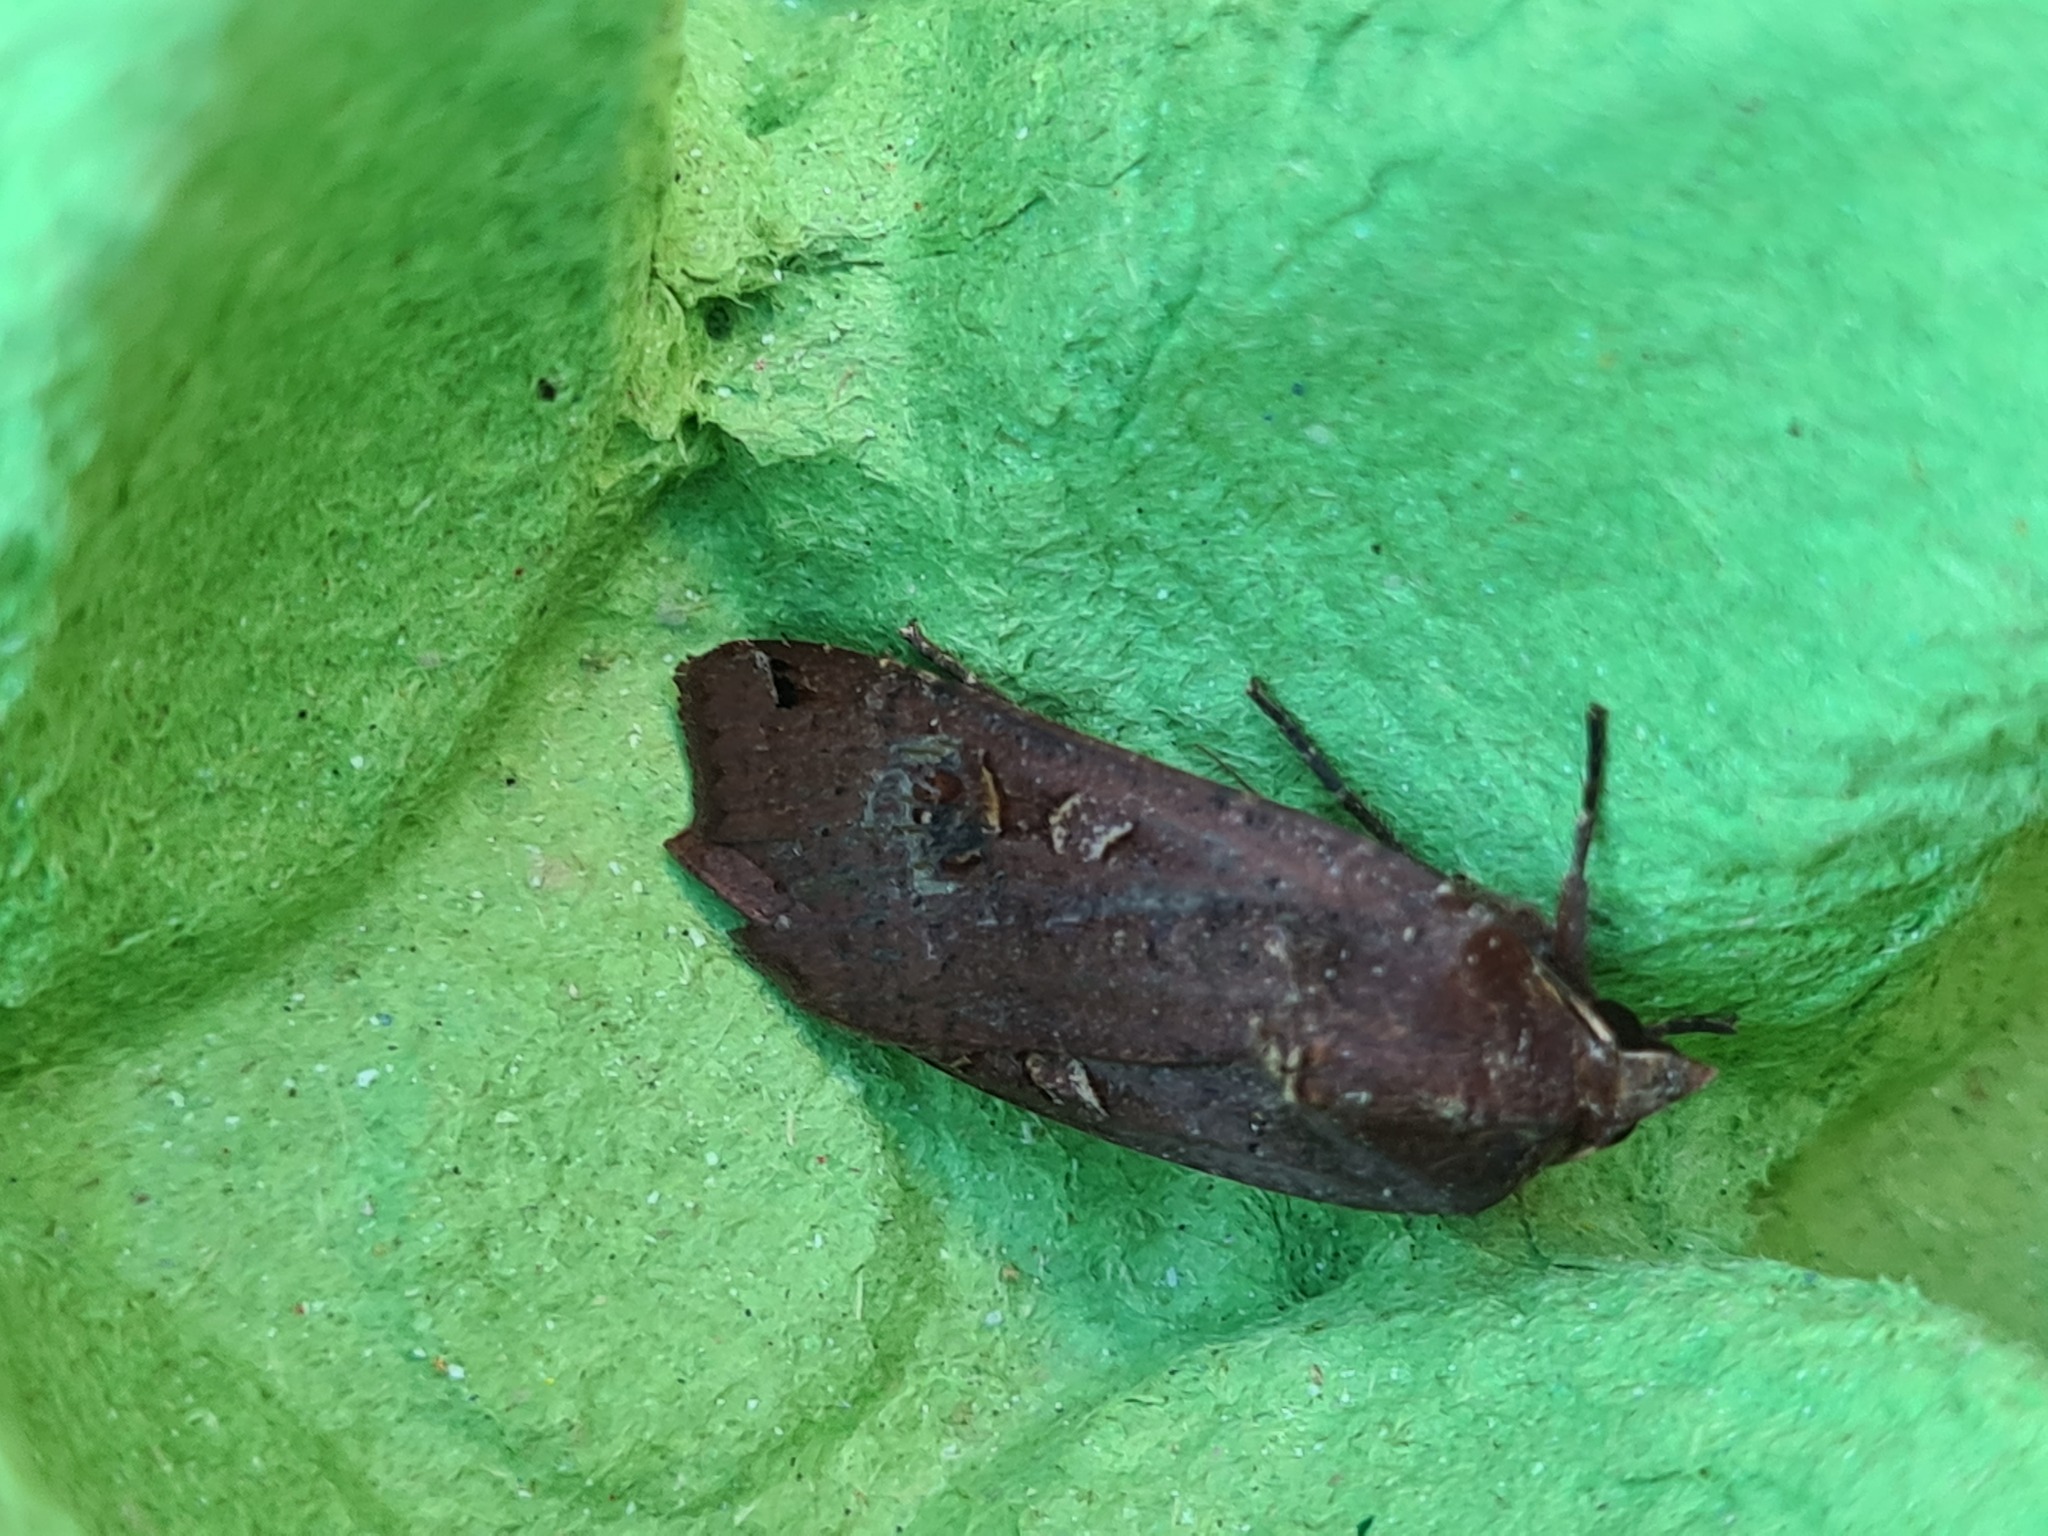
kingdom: Animalia
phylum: Arthropoda
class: Insecta
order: Lepidoptera
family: Noctuidae
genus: Noctua
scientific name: Noctua pronuba
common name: Large yellow underwing
